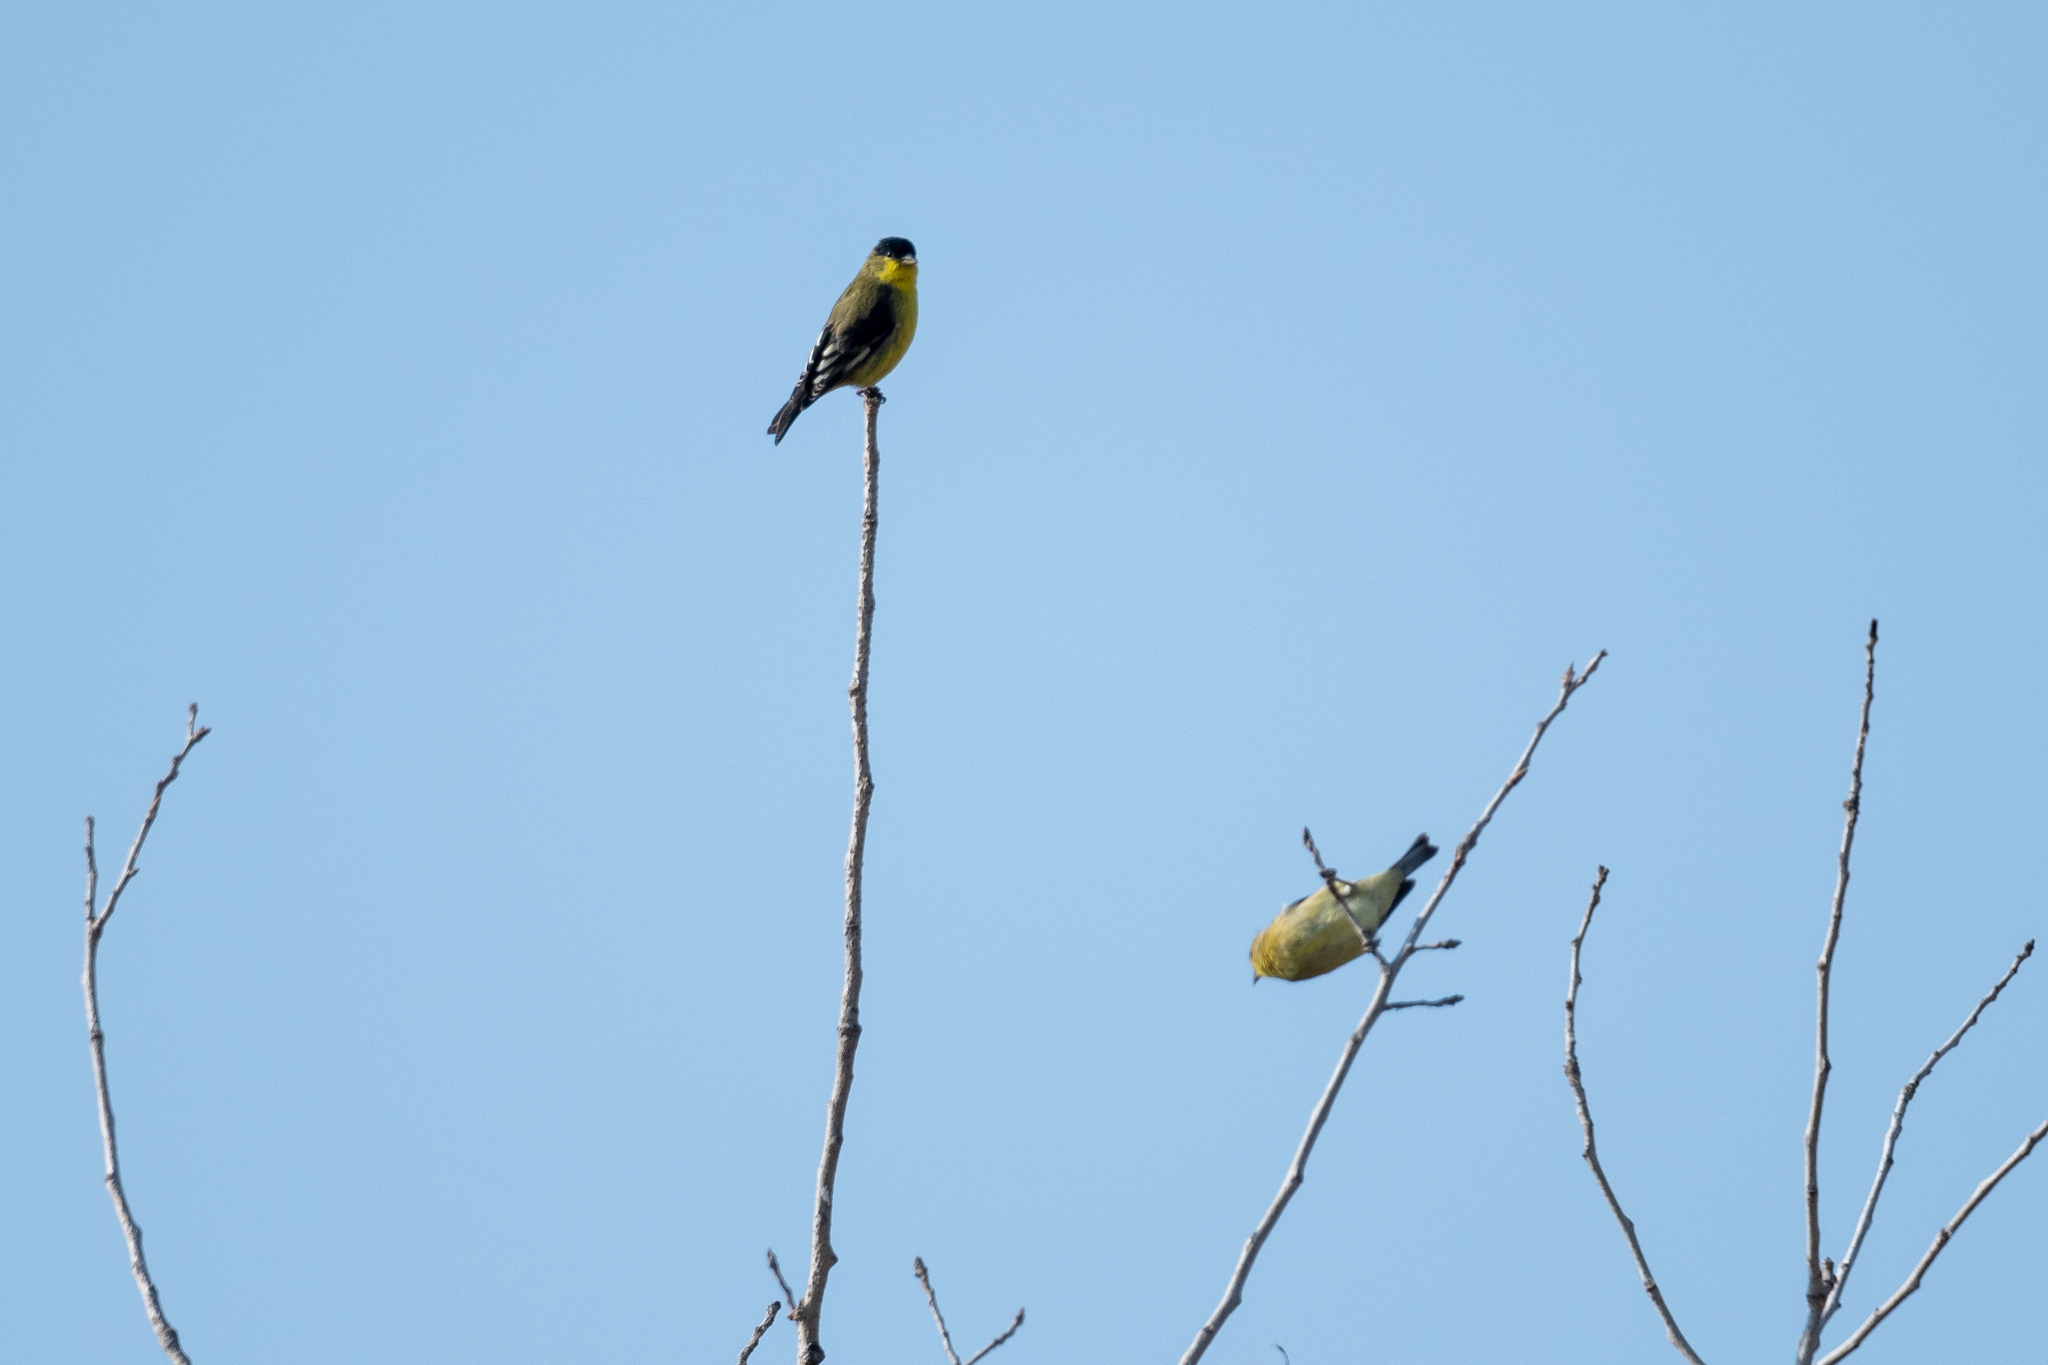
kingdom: Animalia
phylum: Chordata
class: Aves
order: Passeriformes
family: Fringillidae
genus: Spinus
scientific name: Spinus psaltria
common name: Lesser goldfinch
